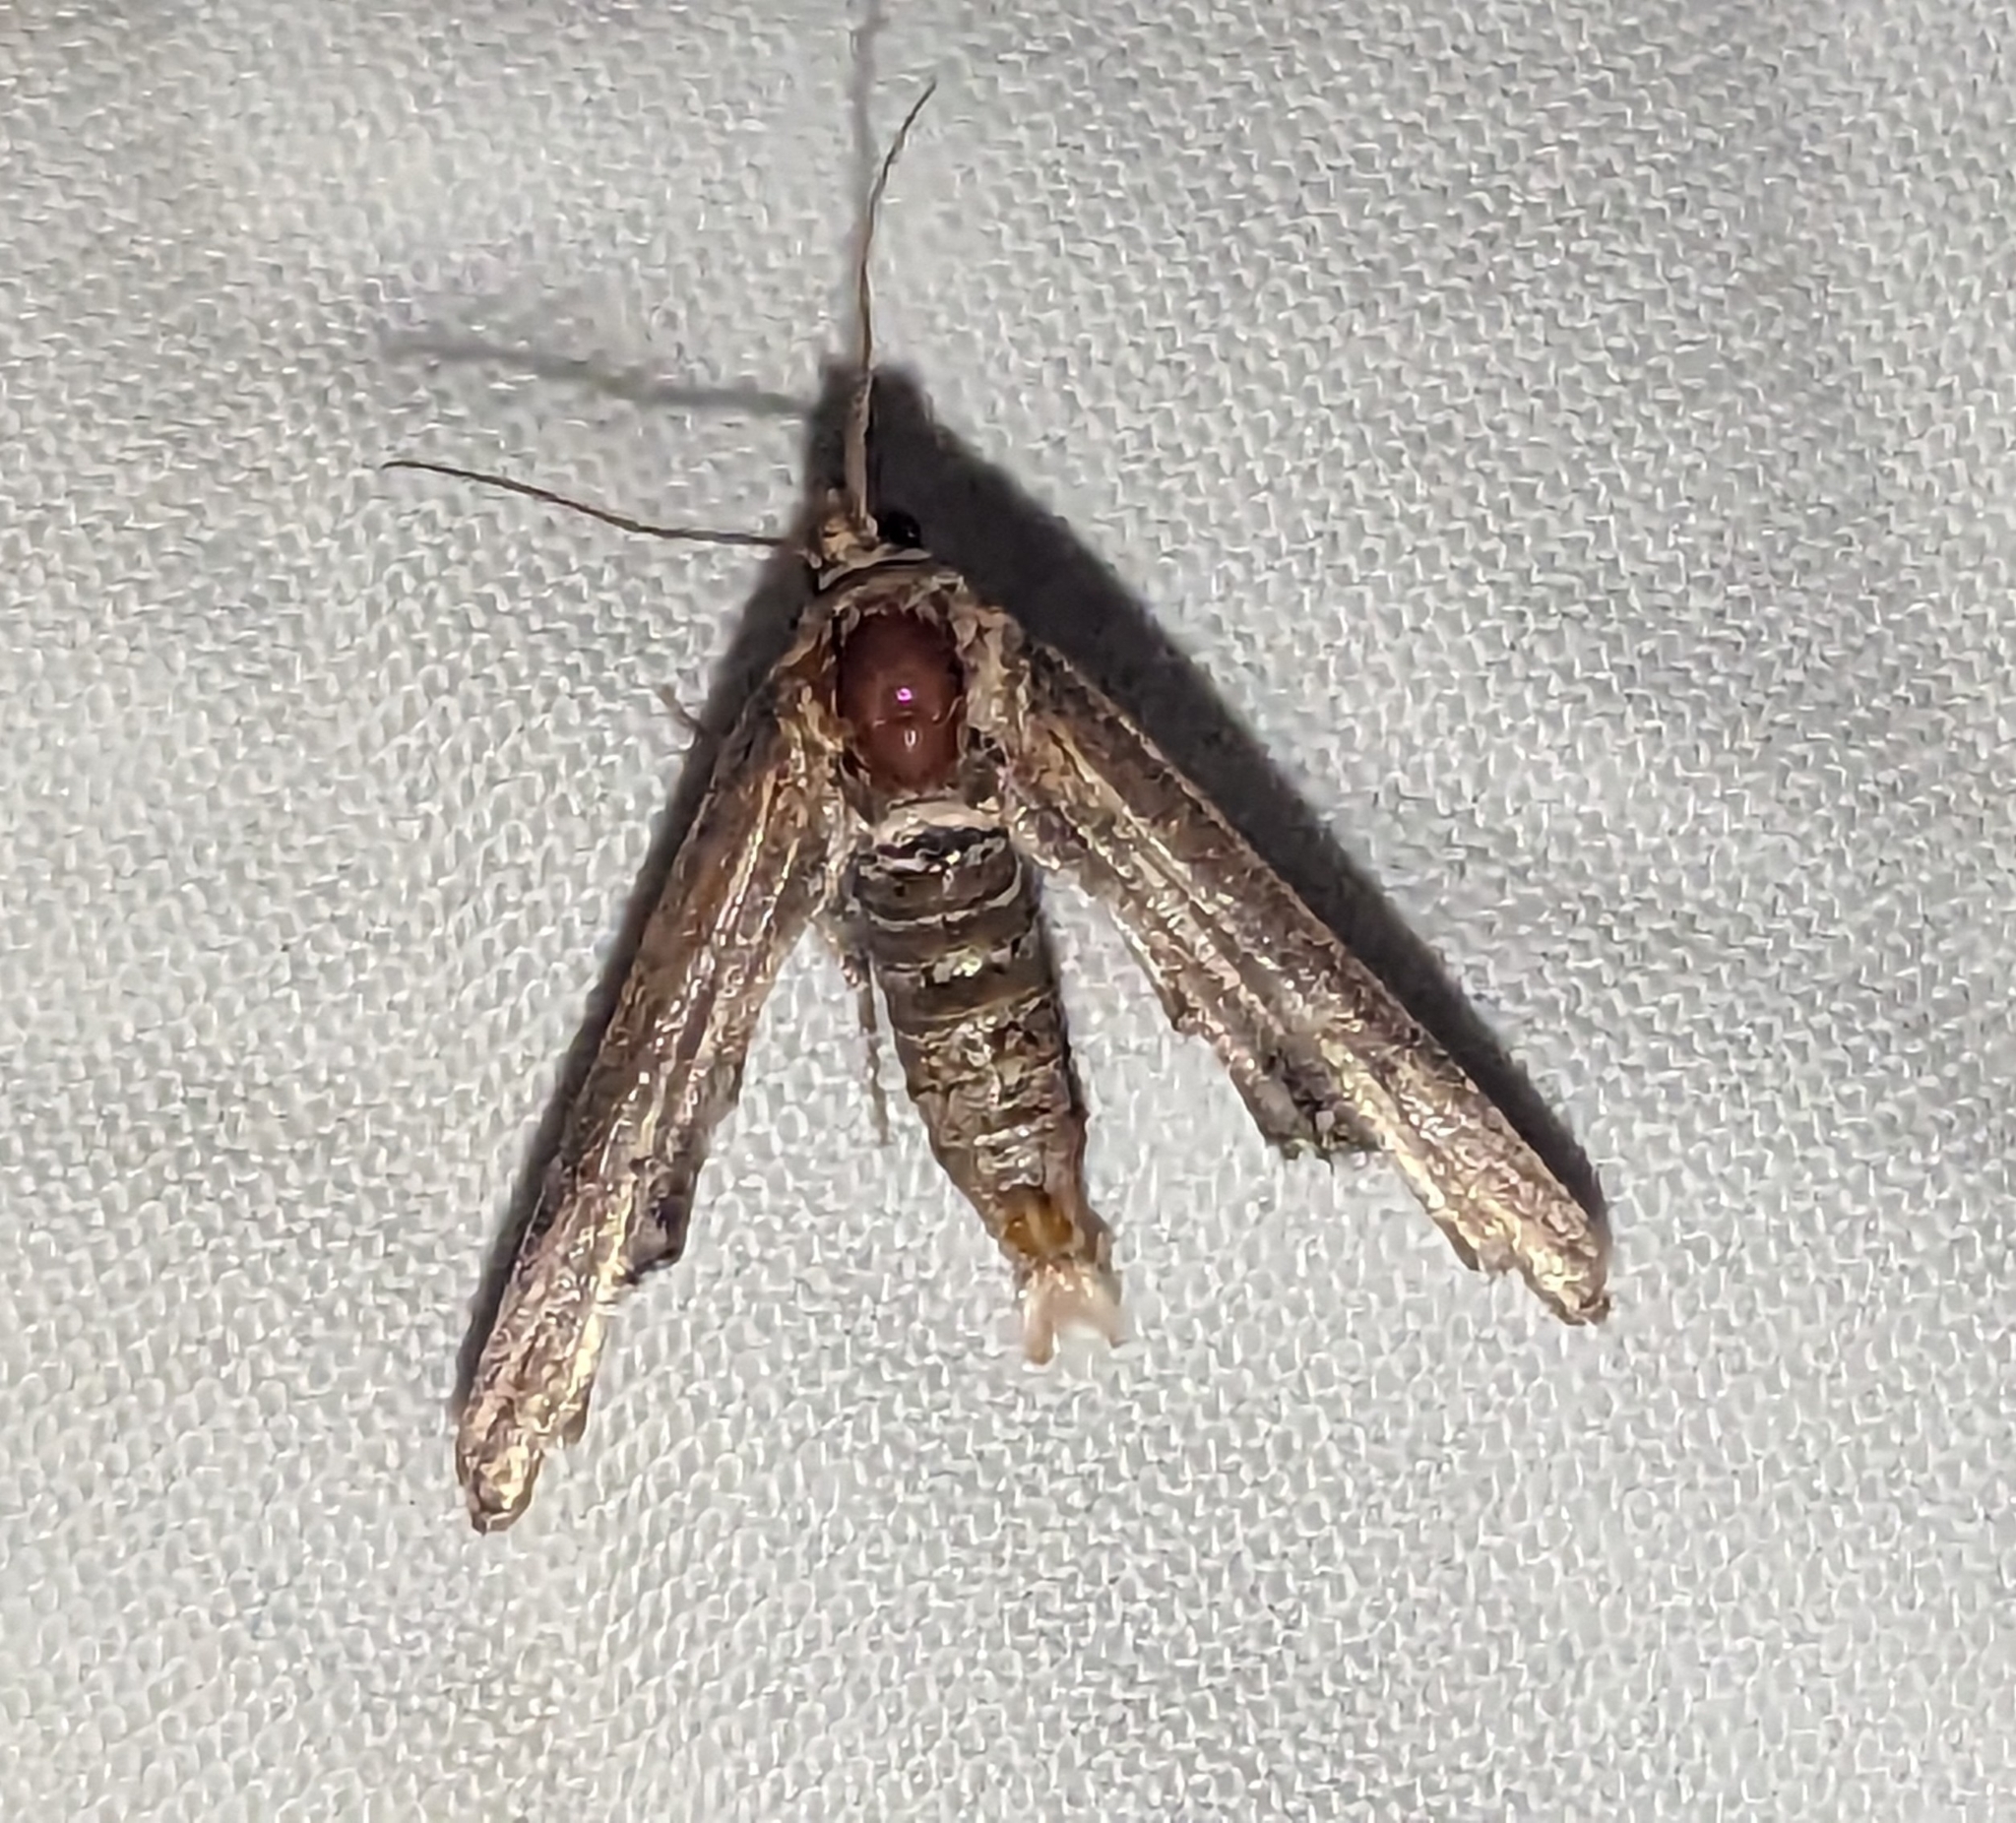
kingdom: Animalia
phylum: Arthropoda
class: Insecta
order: Lepidoptera
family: Euteliidae
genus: Marathyssa
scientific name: Marathyssa inficita
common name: Dark marathyssa moth
